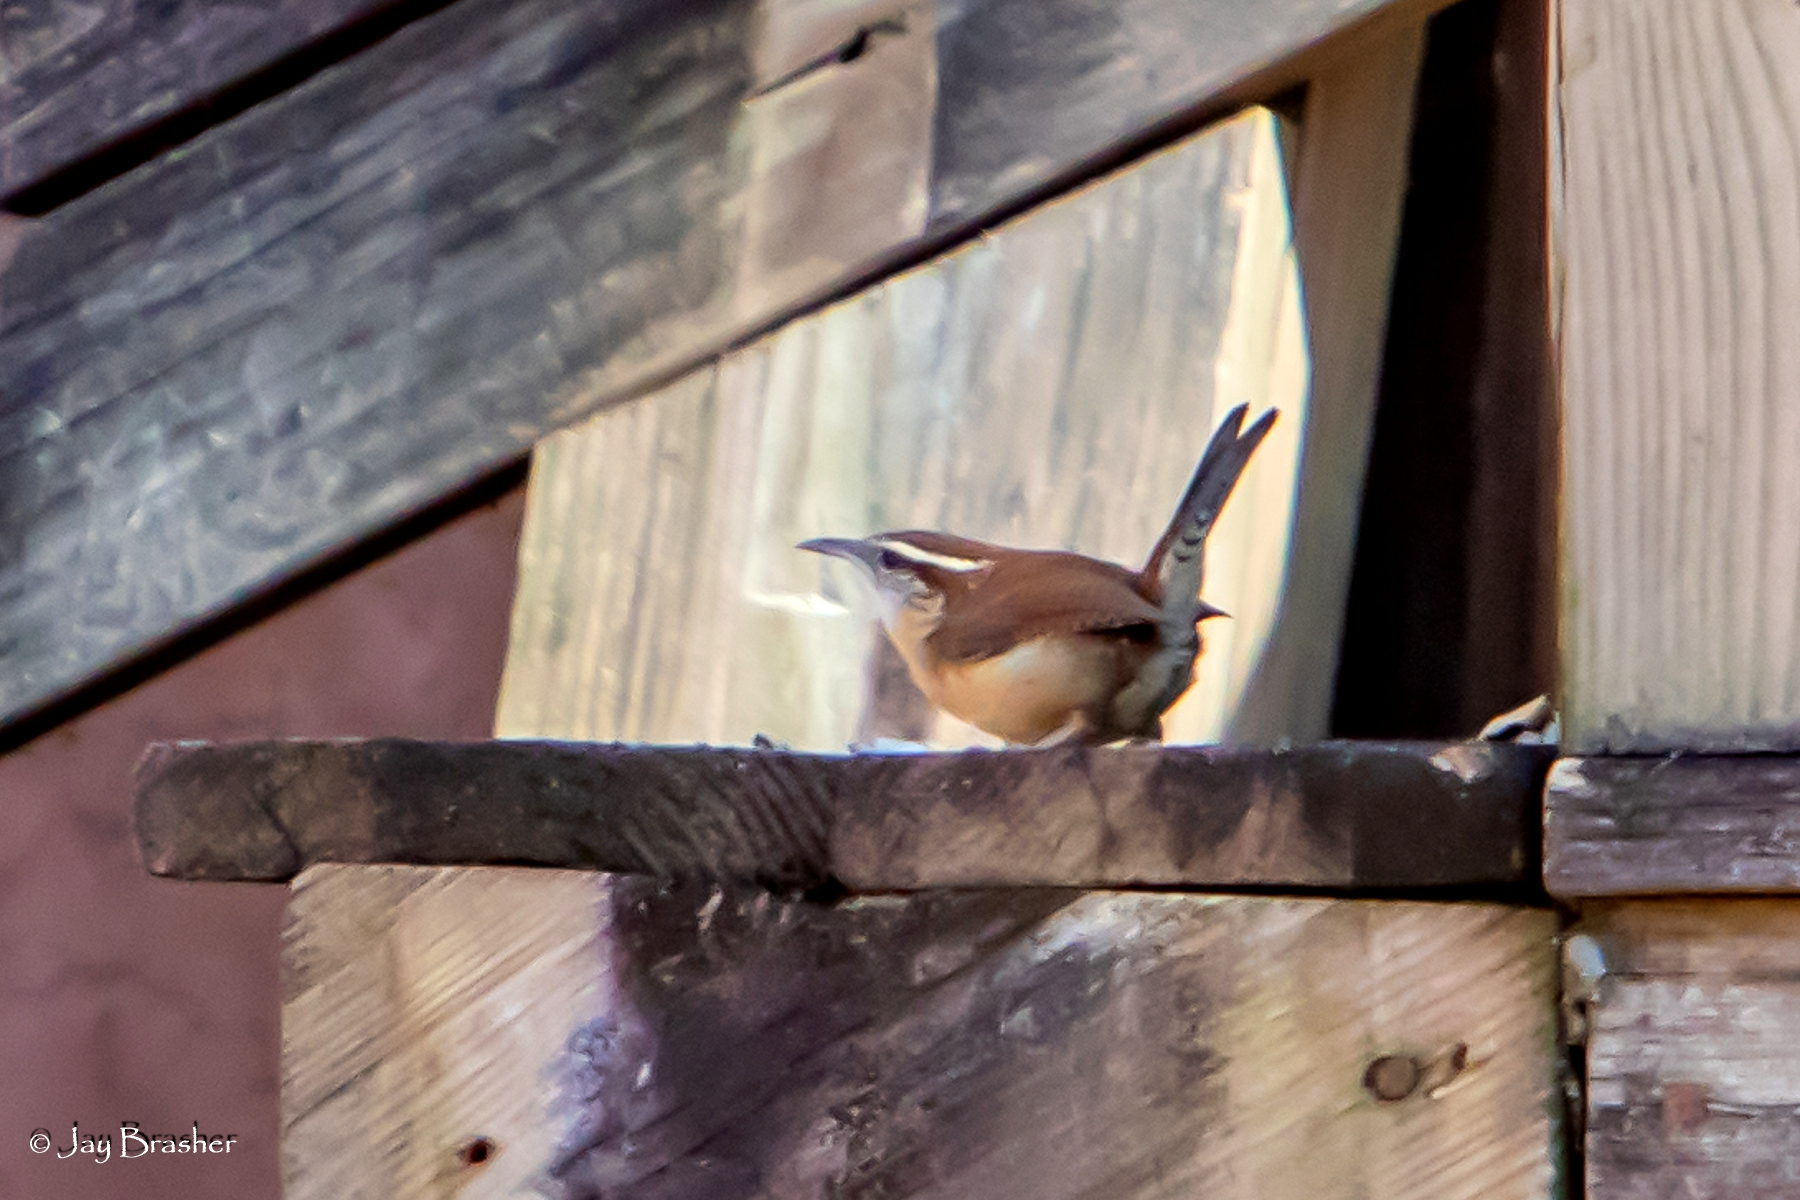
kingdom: Animalia
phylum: Chordata
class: Aves
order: Passeriformes
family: Troglodytidae
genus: Thryothorus
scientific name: Thryothorus ludovicianus
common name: Carolina wren
